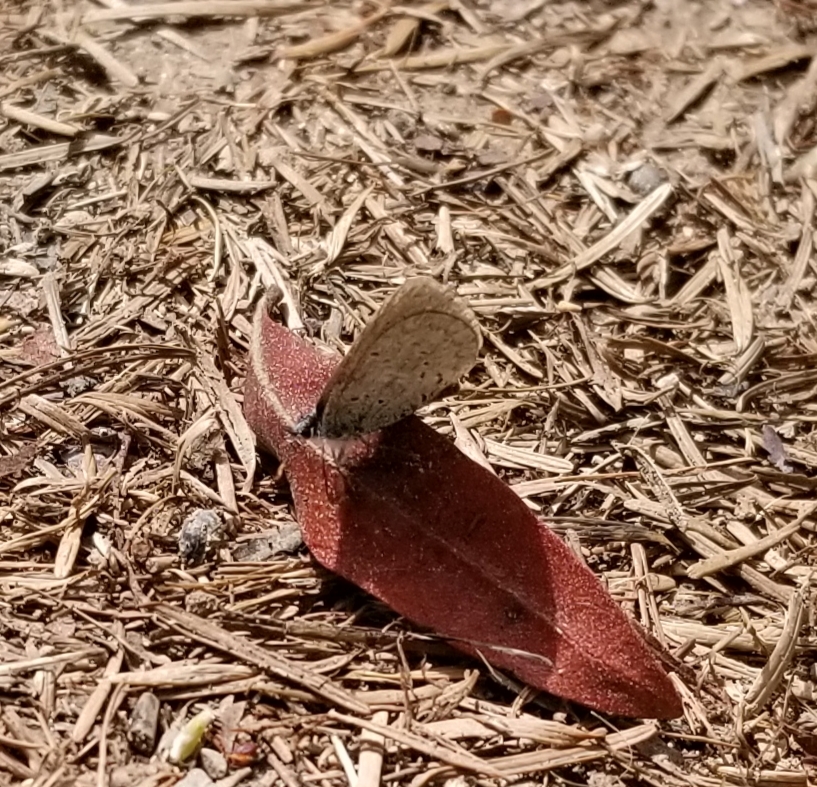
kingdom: Animalia
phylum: Arthropoda
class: Insecta
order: Lepidoptera
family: Lycaenidae
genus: Celastrina
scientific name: Celastrina ladon
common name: Spring azure
